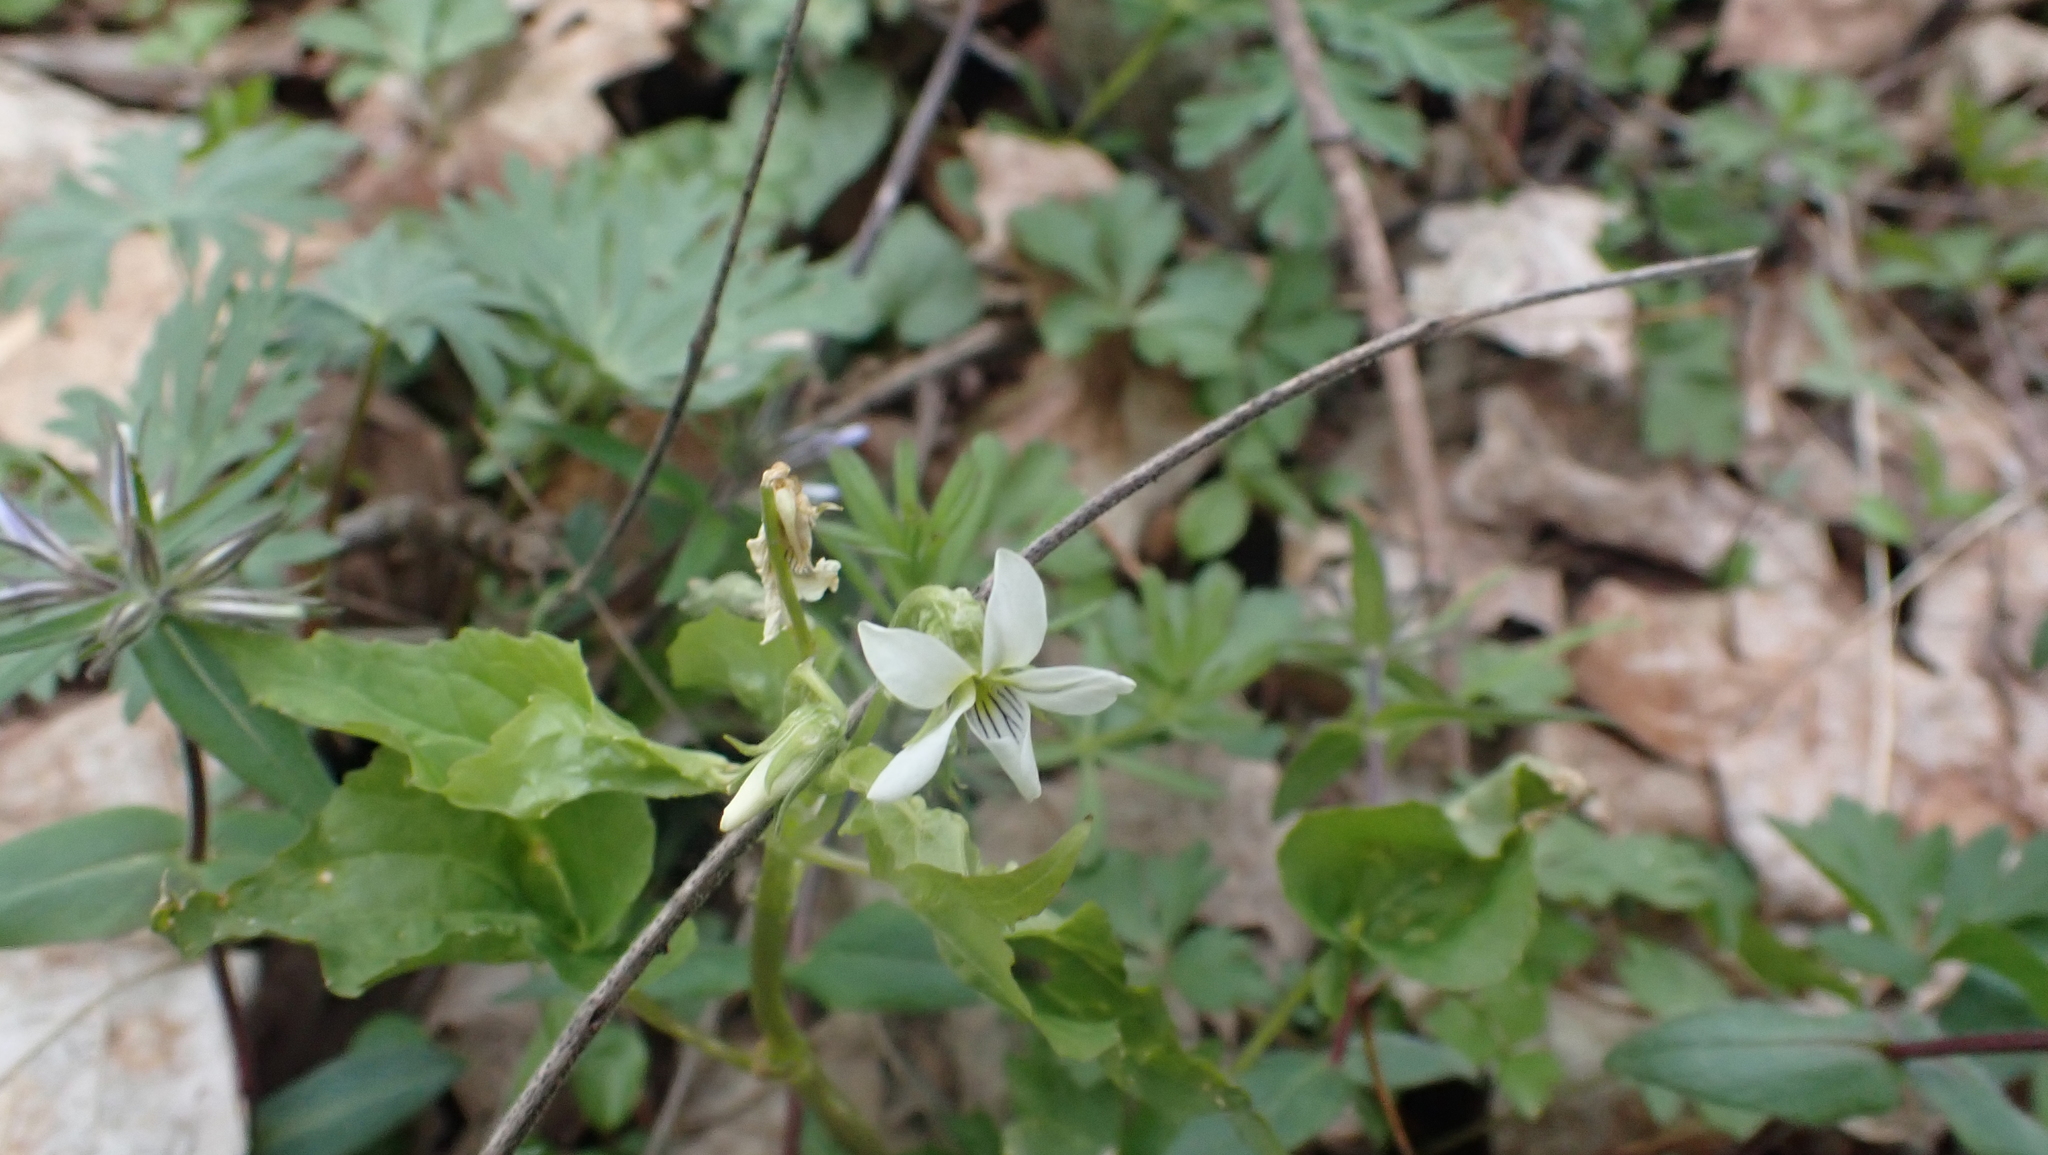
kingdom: Plantae
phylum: Tracheophyta
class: Magnoliopsida
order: Malpighiales
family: Violaceae
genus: Viola
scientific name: Viola canadensis
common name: Canada violet
